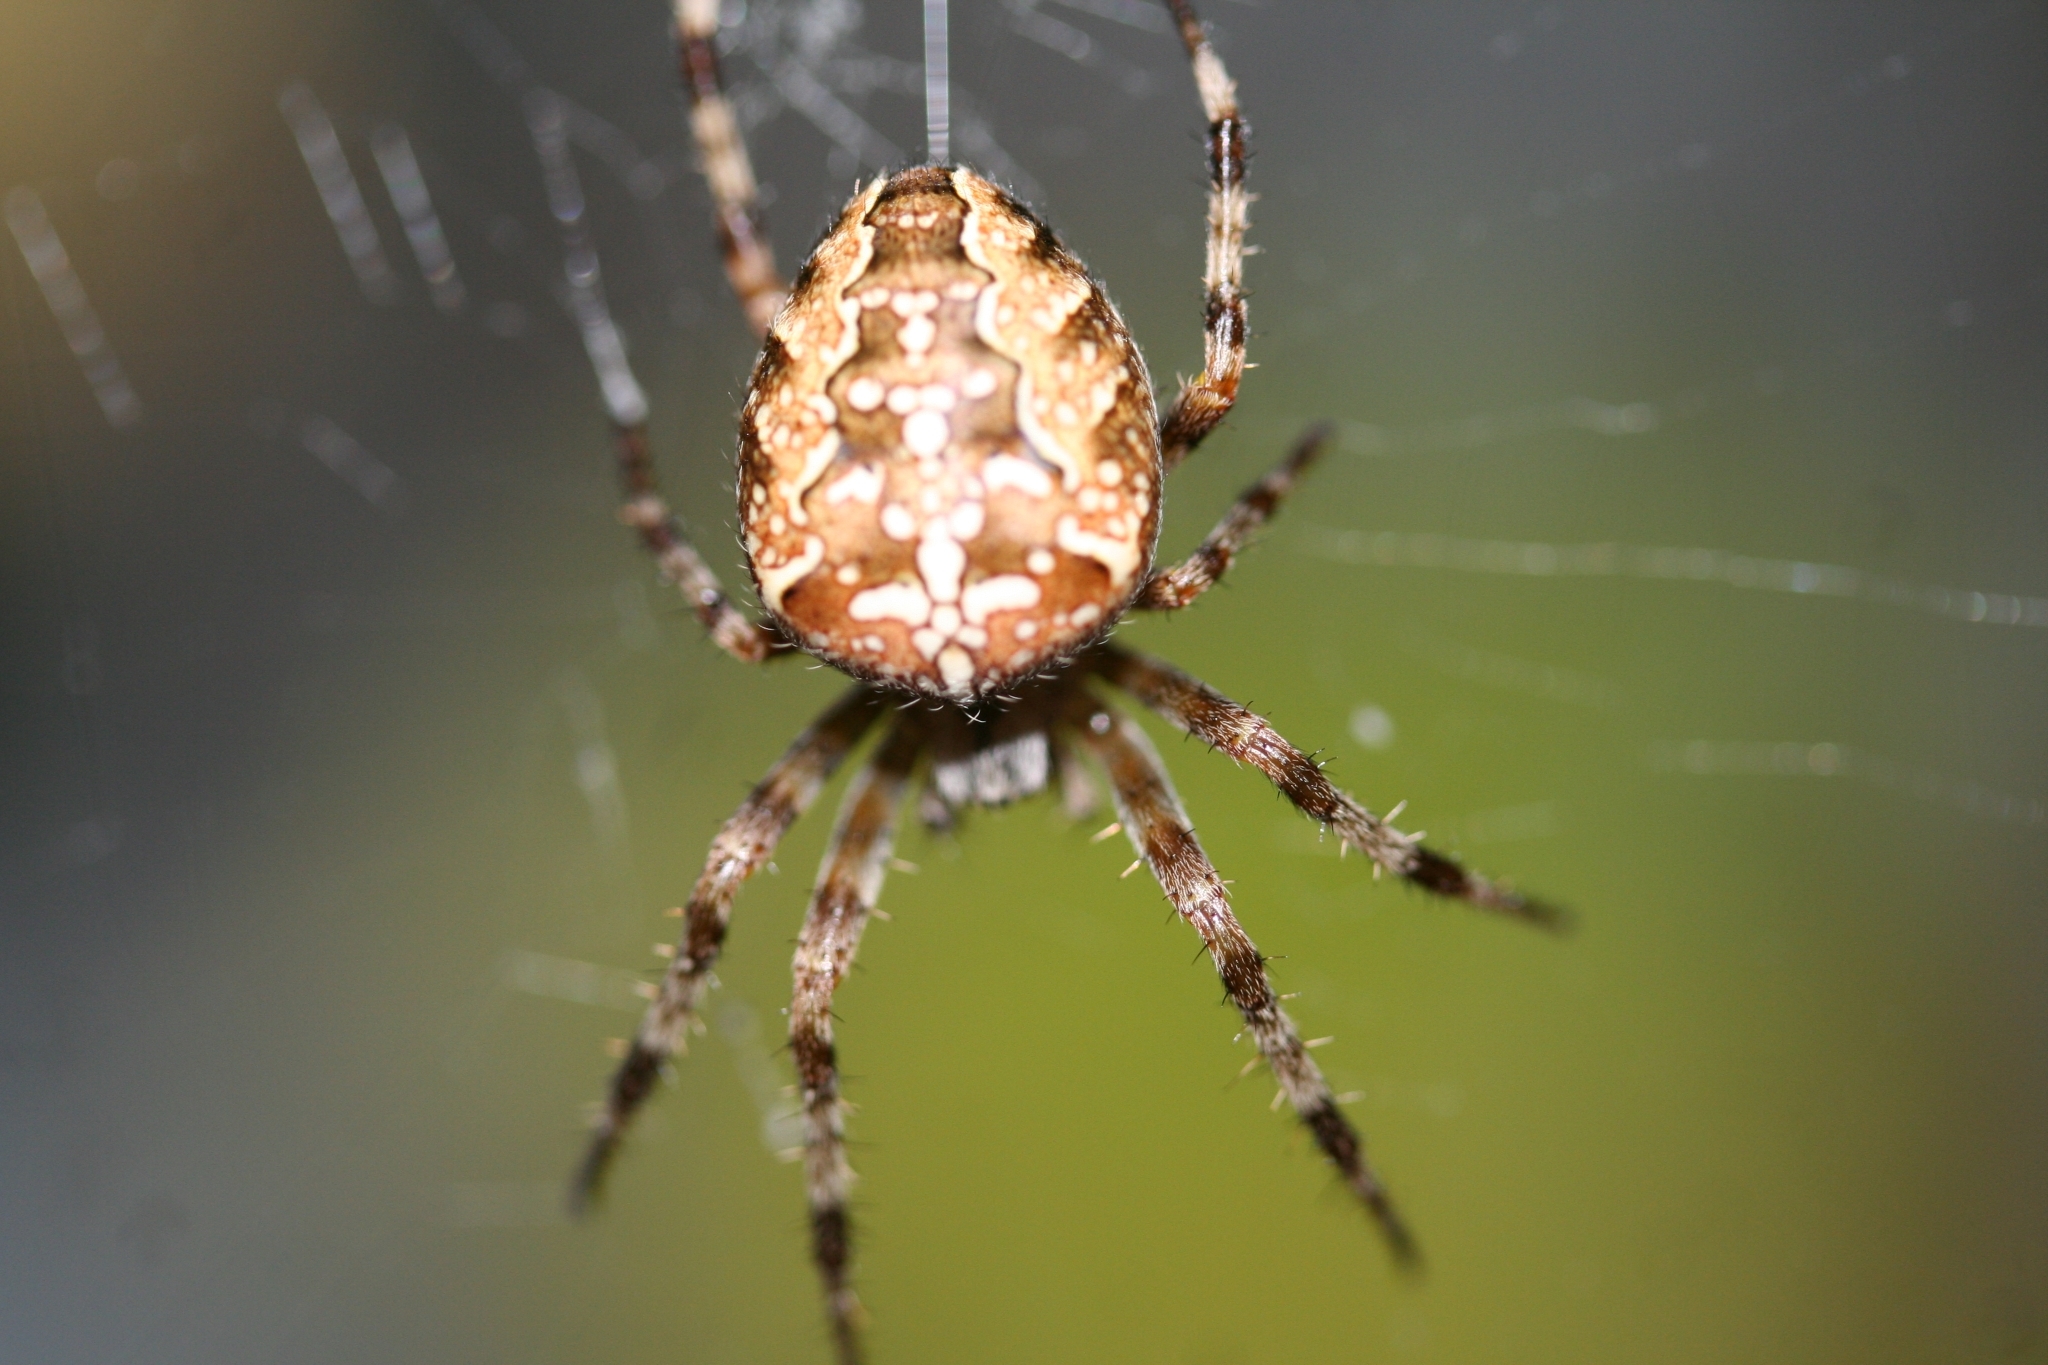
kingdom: Animalia
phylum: Arthropoda
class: Arachnida
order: Araneae
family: Araneidae
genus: Araneus
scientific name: Araneus diadematus
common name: Cross orbweaver
